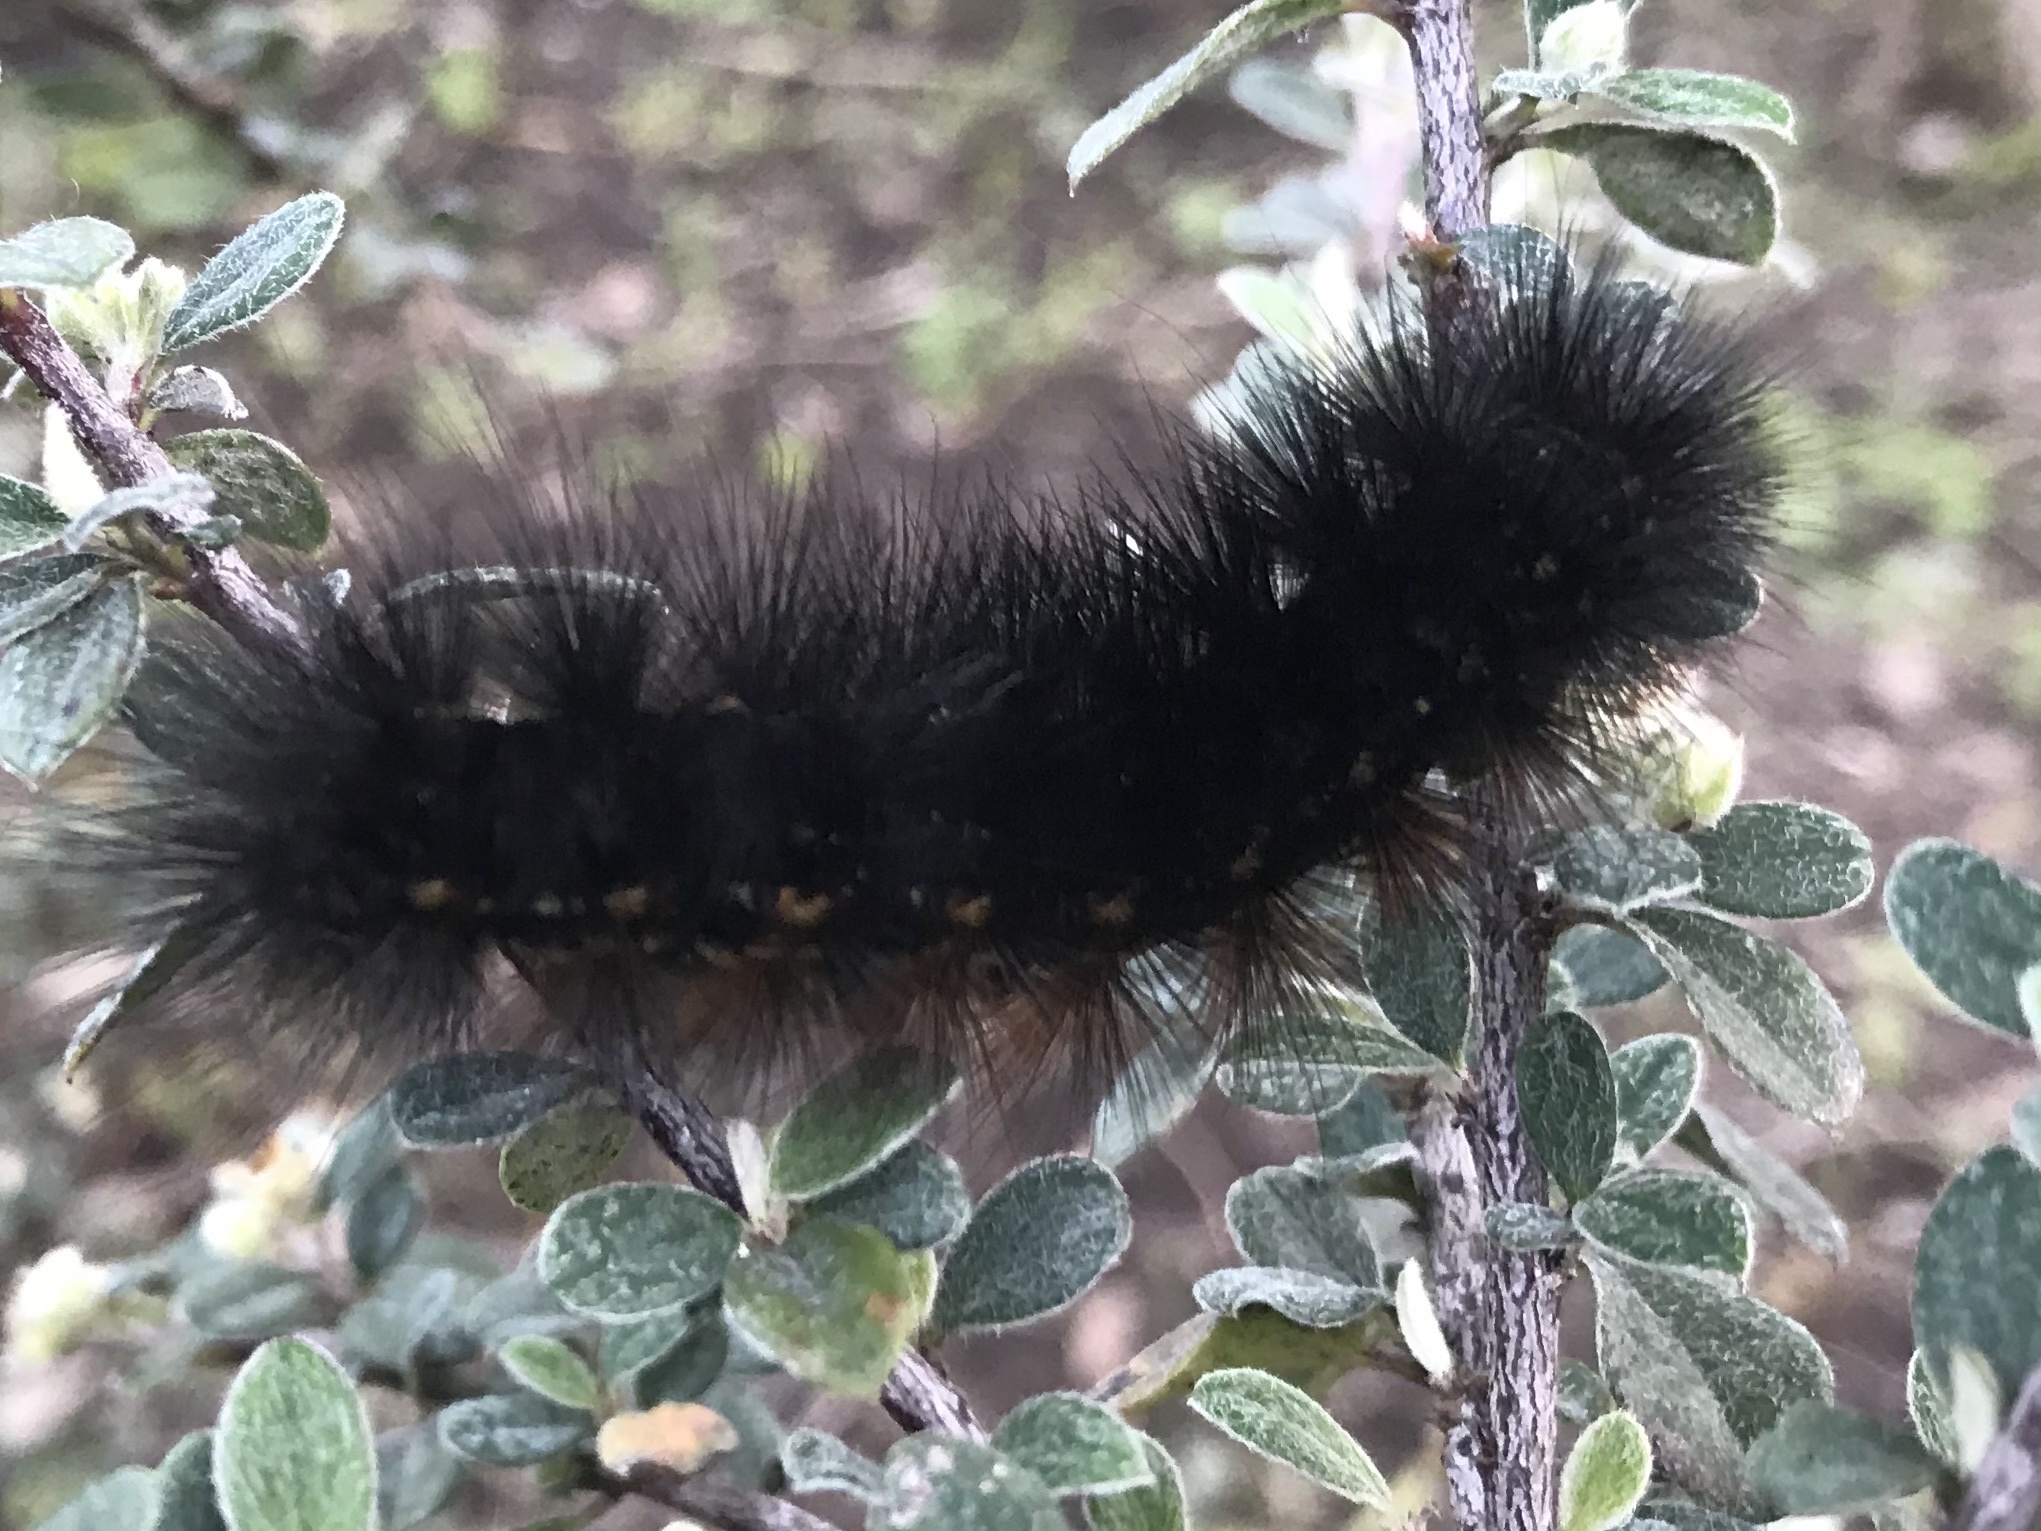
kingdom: Animalia
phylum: Arthropoda
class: Insecta
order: Lepidoptera
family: Erebidae
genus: Estigmene
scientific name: Estigmene acrea
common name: Salt marsh moth
